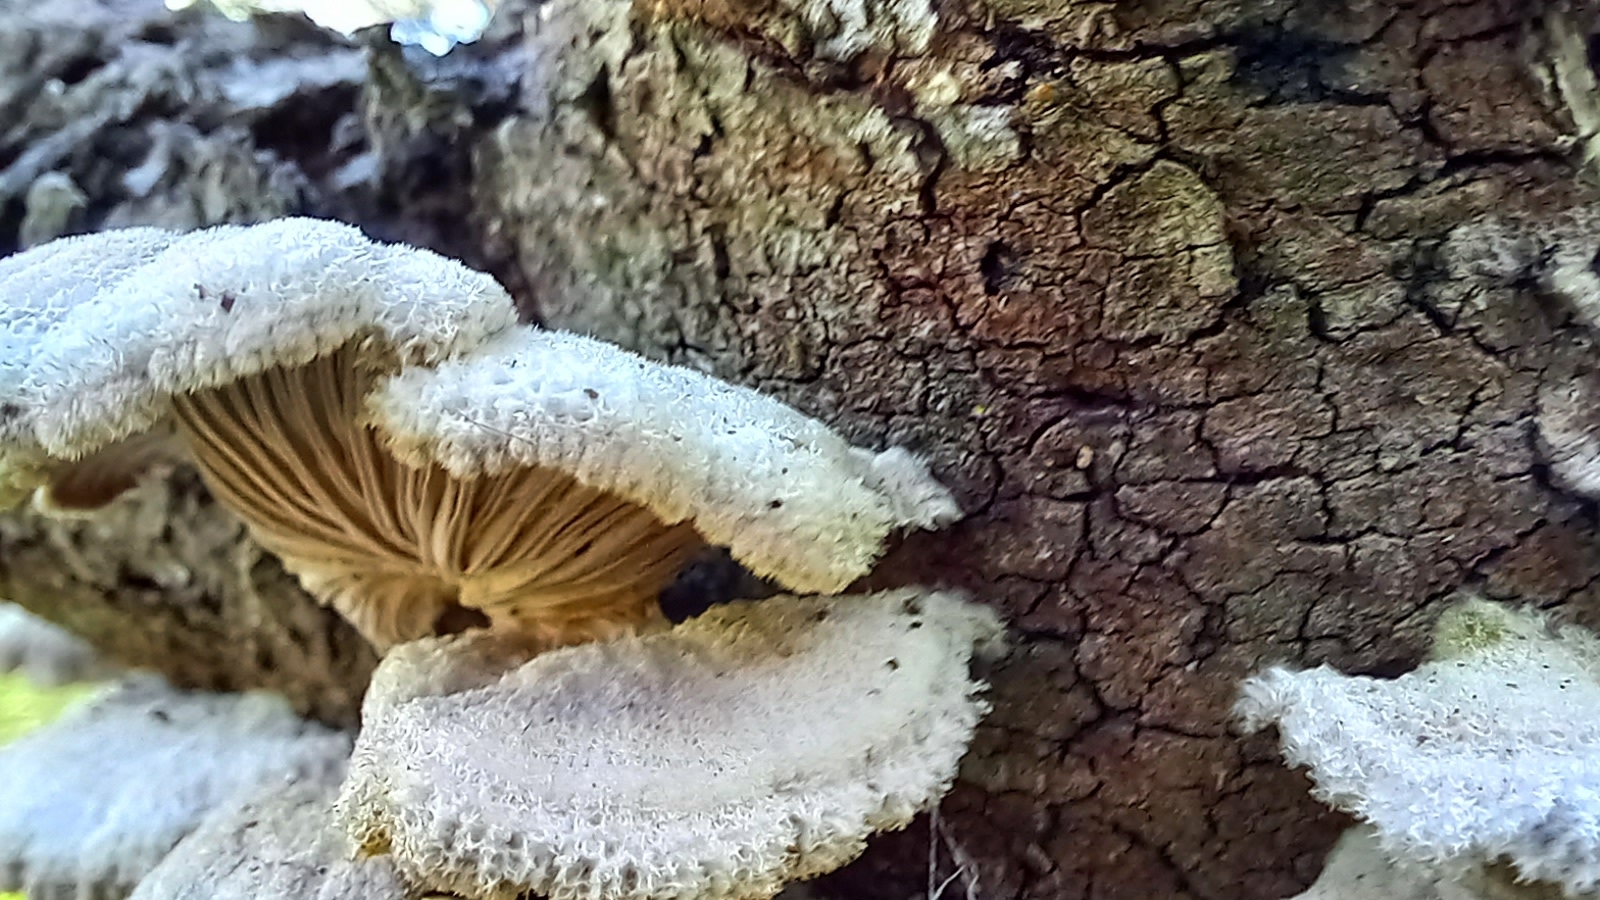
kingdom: Fungi
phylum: Basidiomycota
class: Agaricomycetes
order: Agaricales
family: Schizophyllaceae
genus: Schizophyllum
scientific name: Schizophyllum commune
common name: Common porecrust
